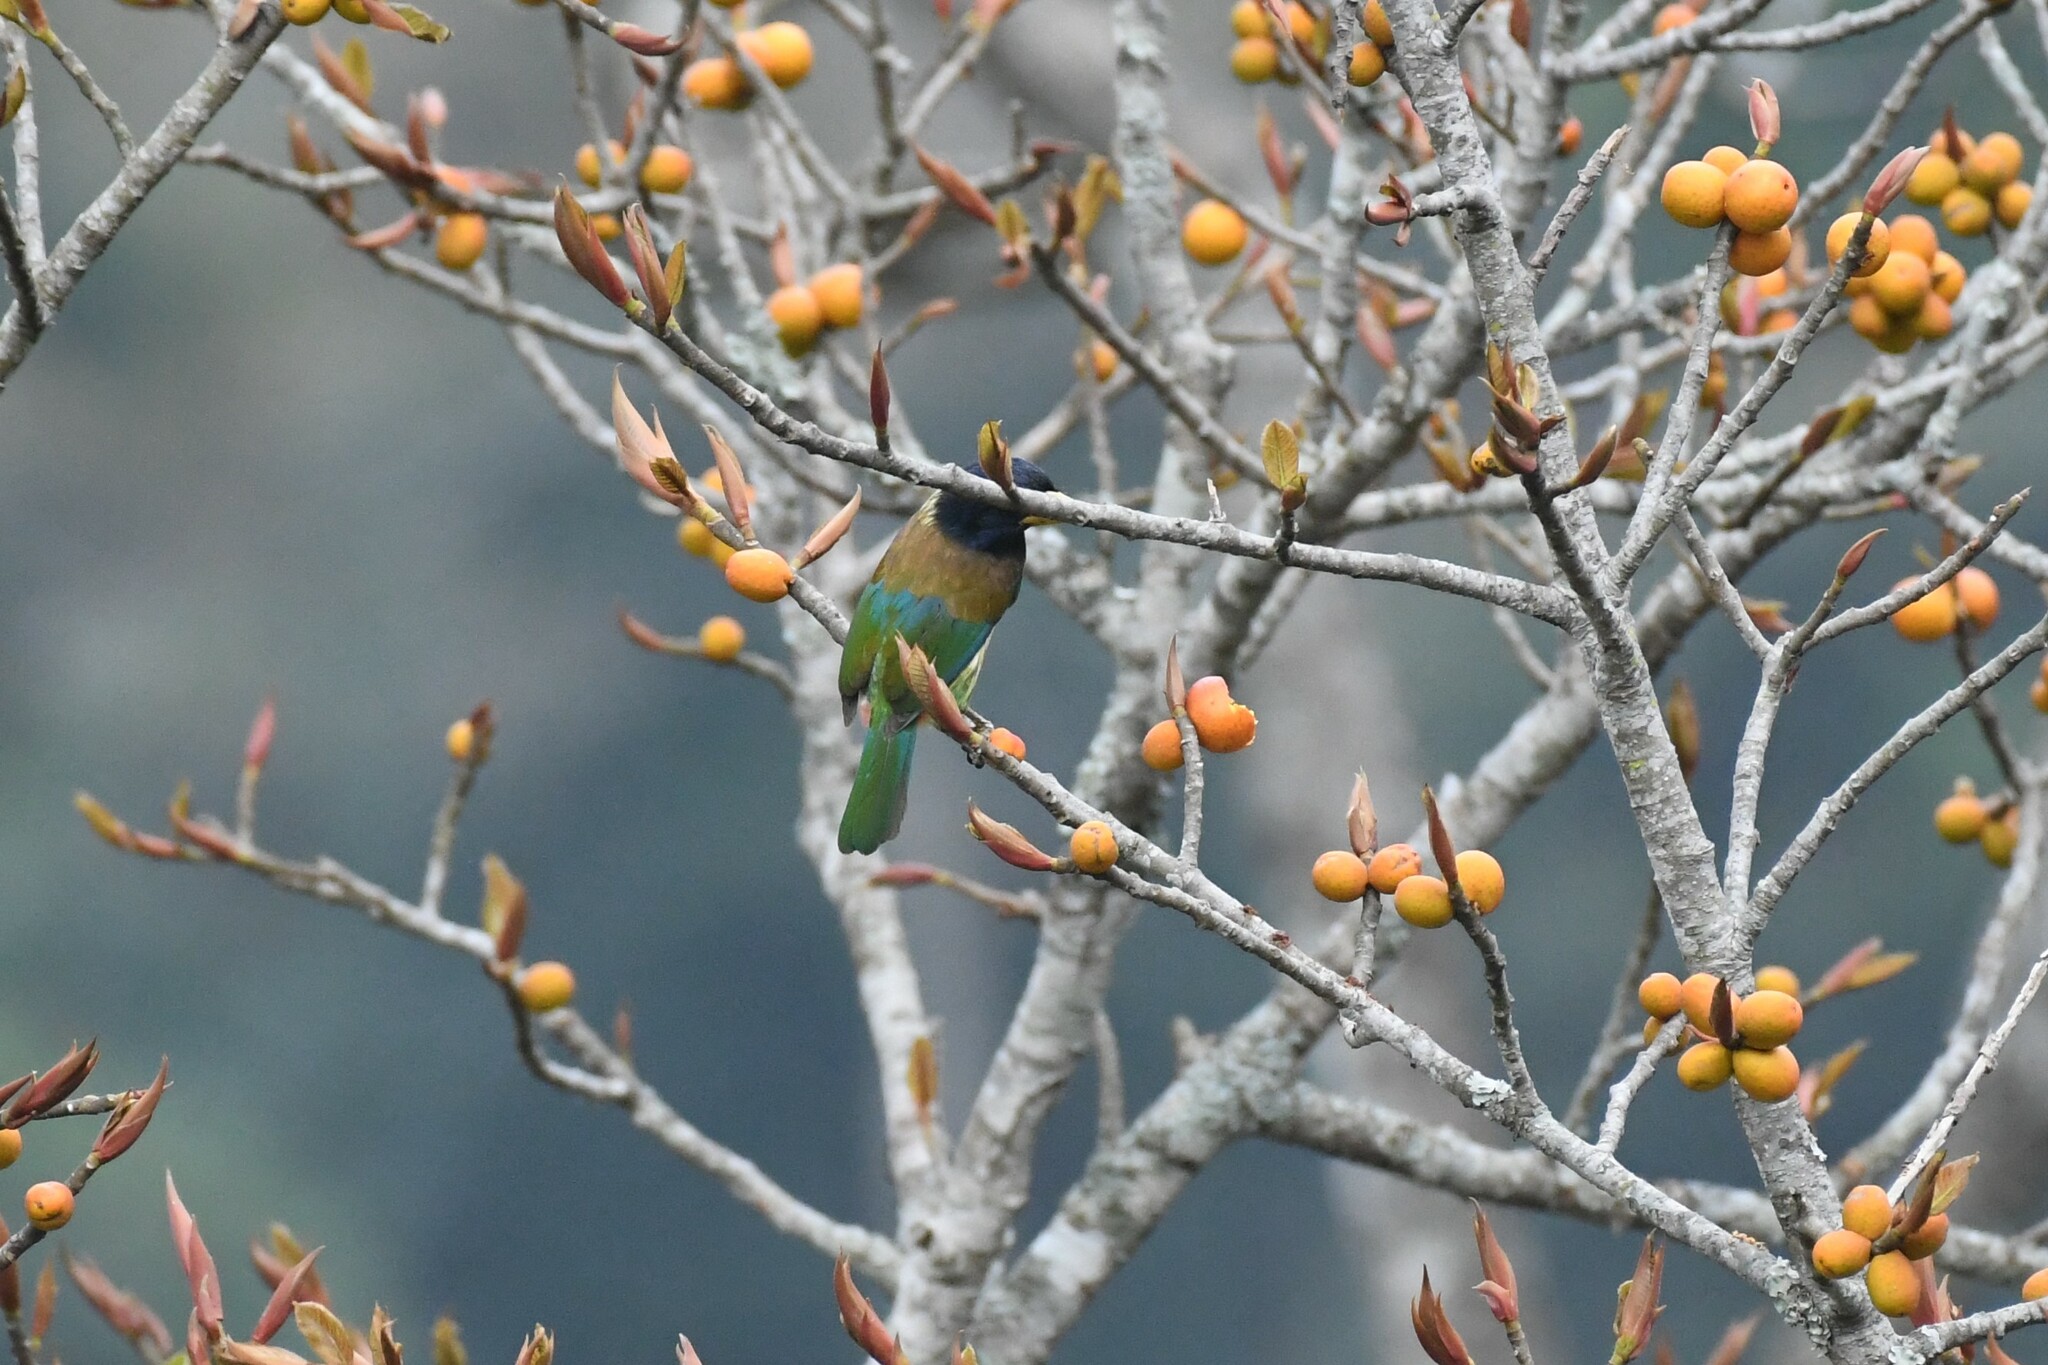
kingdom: Animalia
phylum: Chordata
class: Aves
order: Piciformes
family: Megalaimidae
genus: Psilopogon
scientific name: Psilopogon virens
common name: Great barbet
